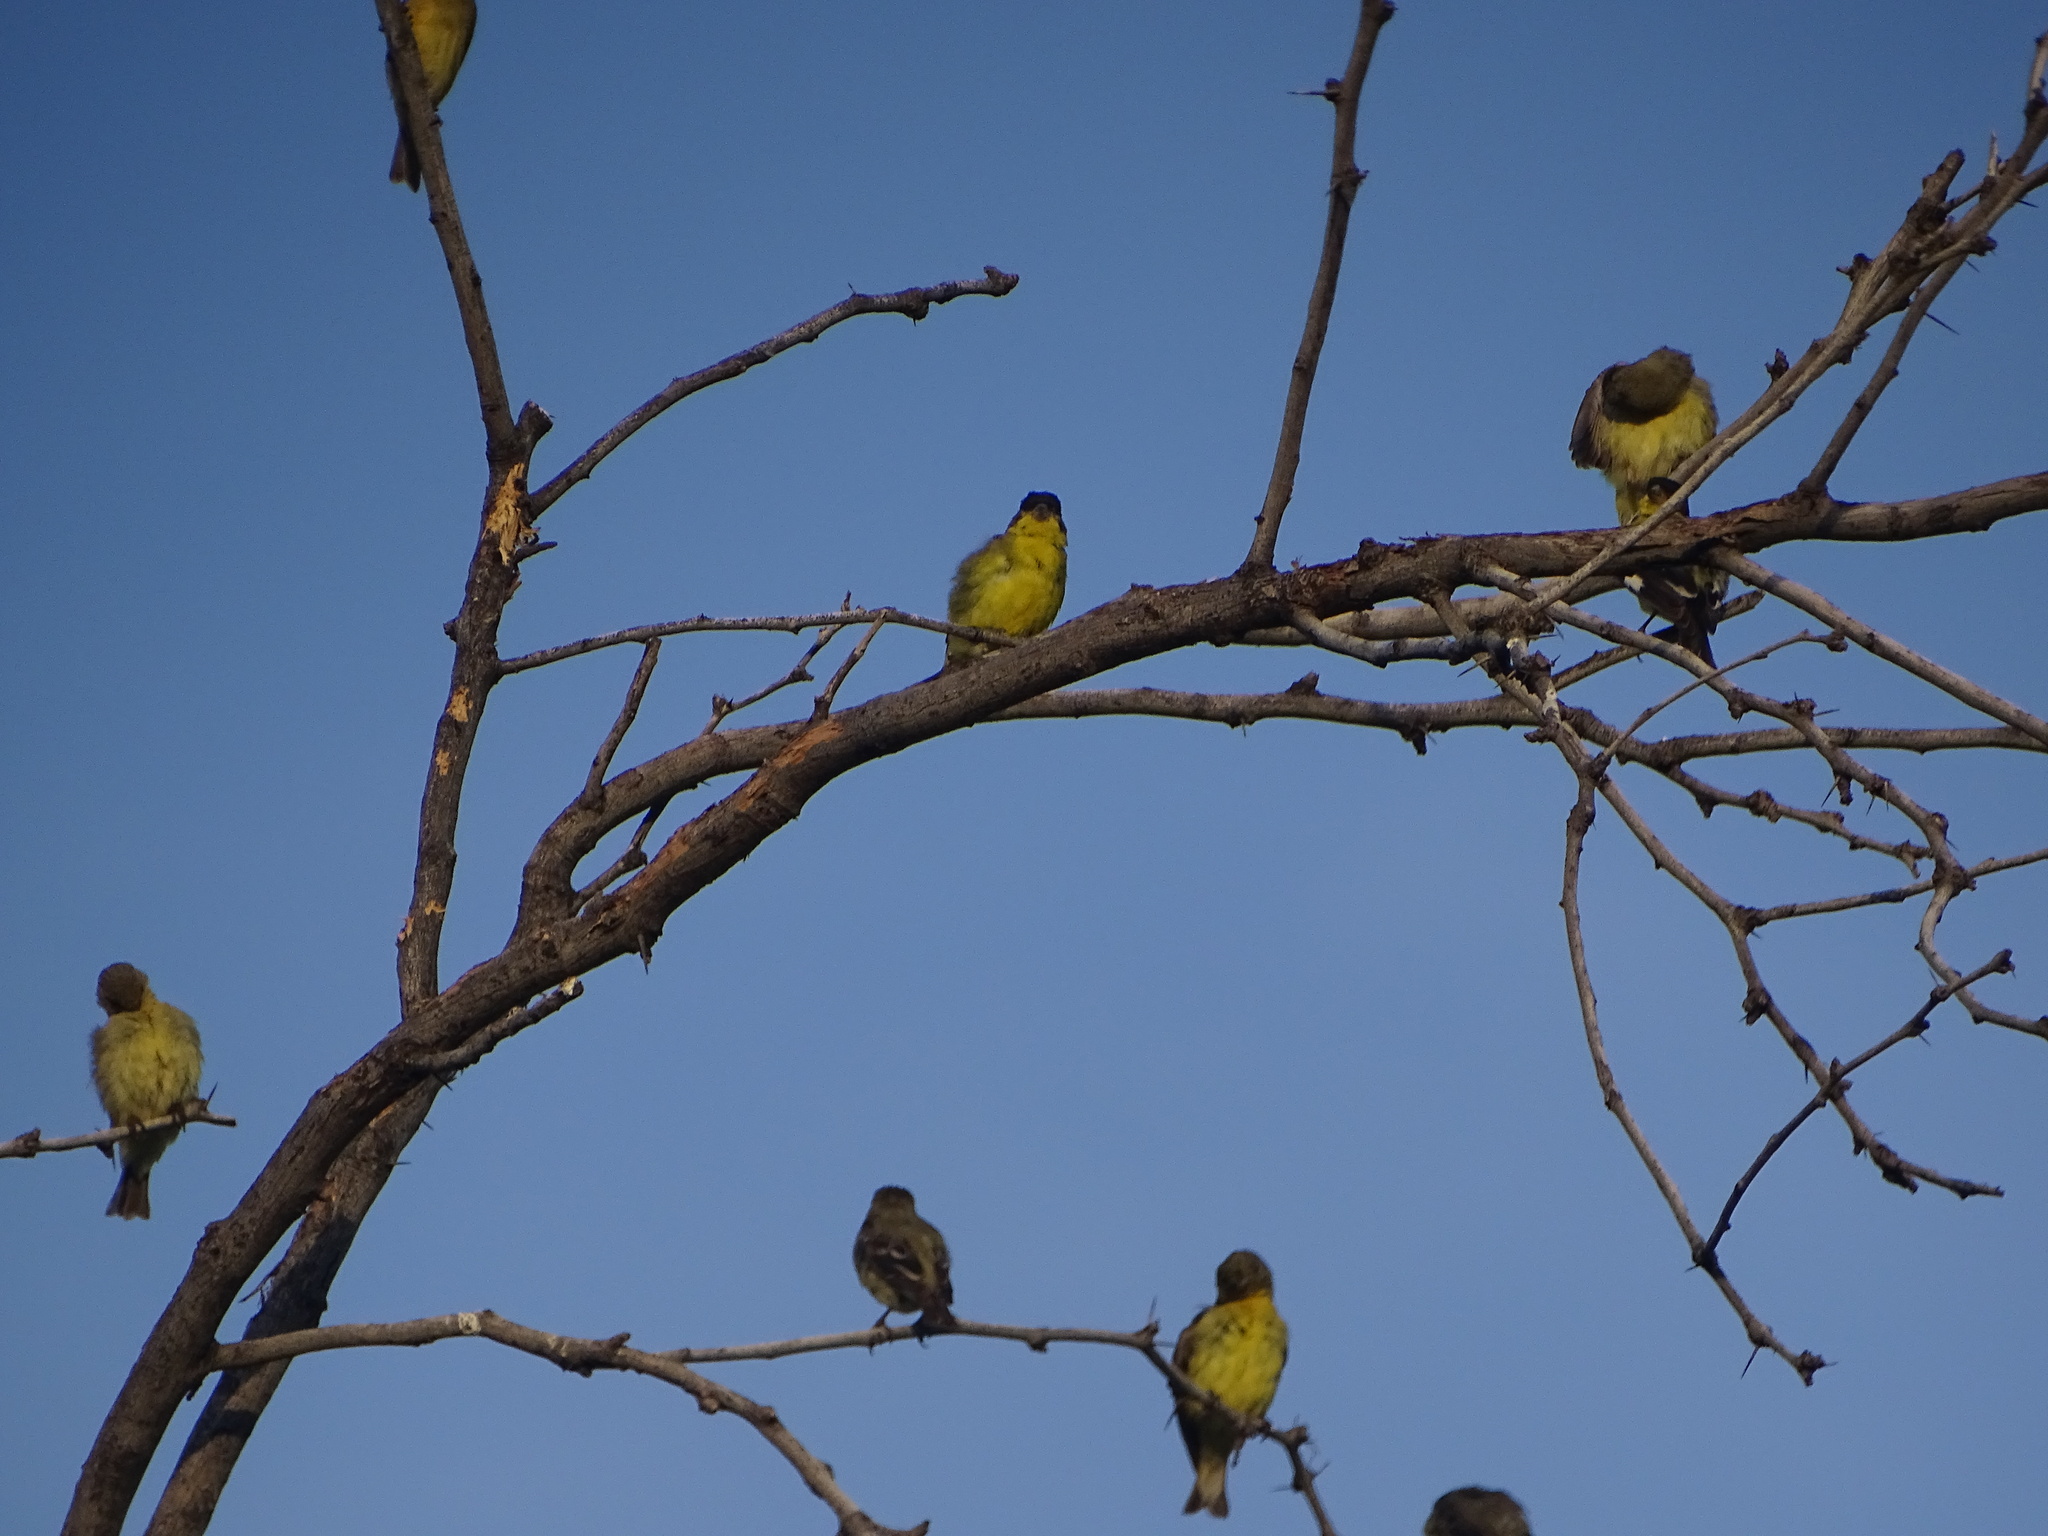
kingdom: Animalia
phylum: Chordata
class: Aves
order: Passeriformes
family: Fringillidae
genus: Spinus
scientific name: Spinus psaltria
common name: Lesser goldfinch
